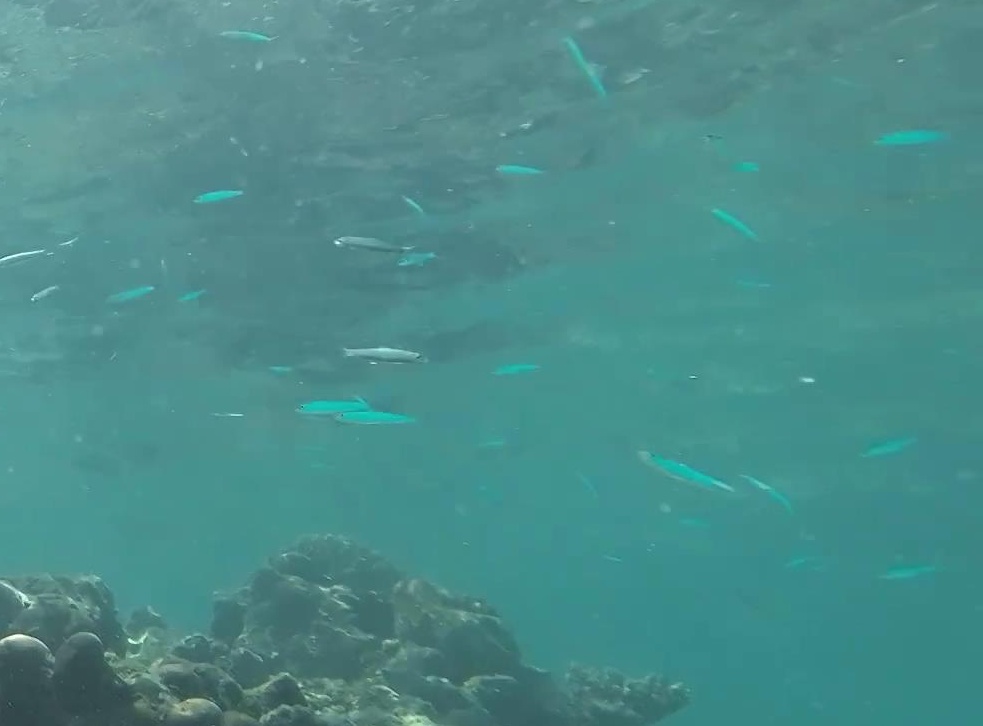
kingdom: Animalia
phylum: Chordata
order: Beloniformes
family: Belonidae
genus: Tylosurus
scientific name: Tylosurus crocodilus
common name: Houndfish
